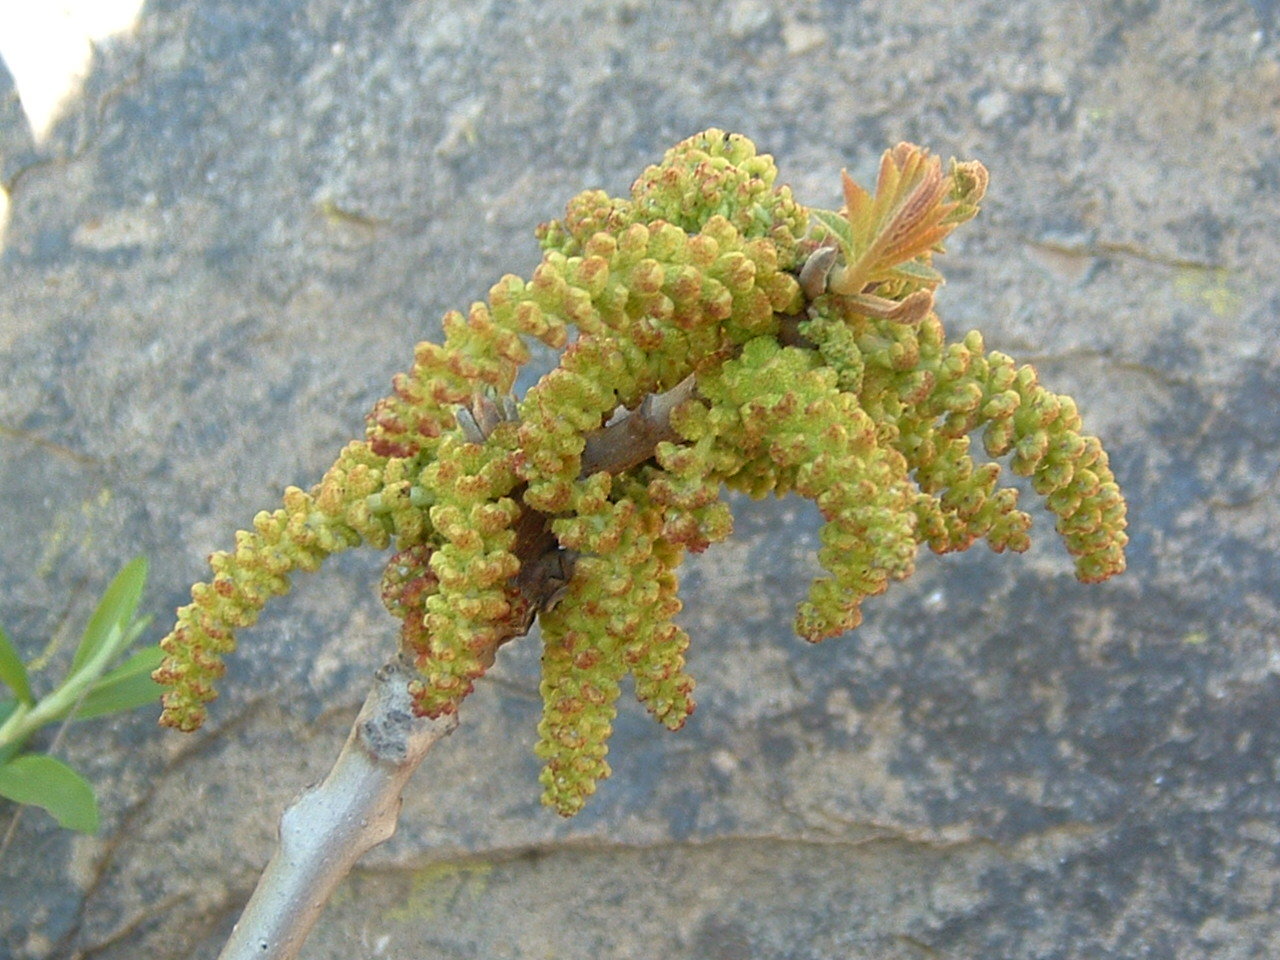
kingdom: Plantae
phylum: Tracheophyta
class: Magnoliopsida
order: Fagales
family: Juglandaceae
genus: Juglans
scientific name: Juglans californica
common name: Southern california black walnut
